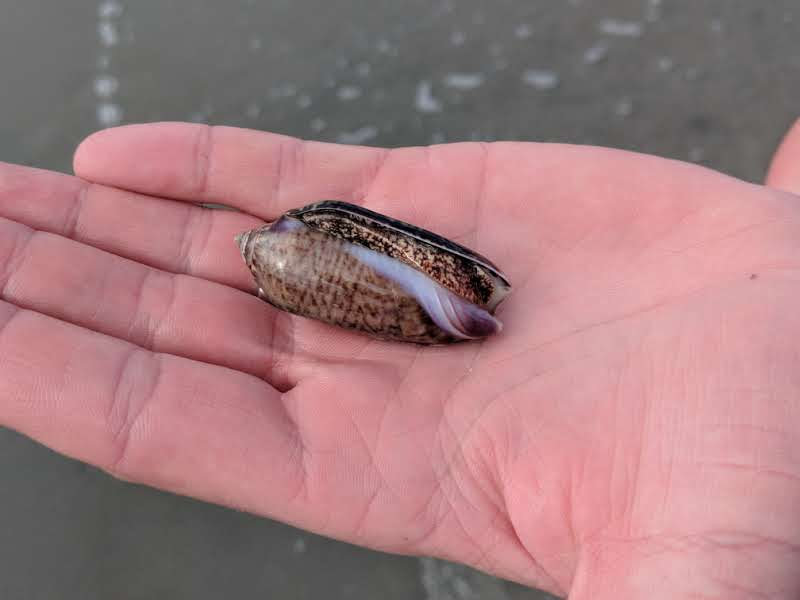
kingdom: Animalia
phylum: Mollusca
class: Gastropoda
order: Neogastropoda
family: Olividae
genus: Oliva
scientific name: Oliva spicata
